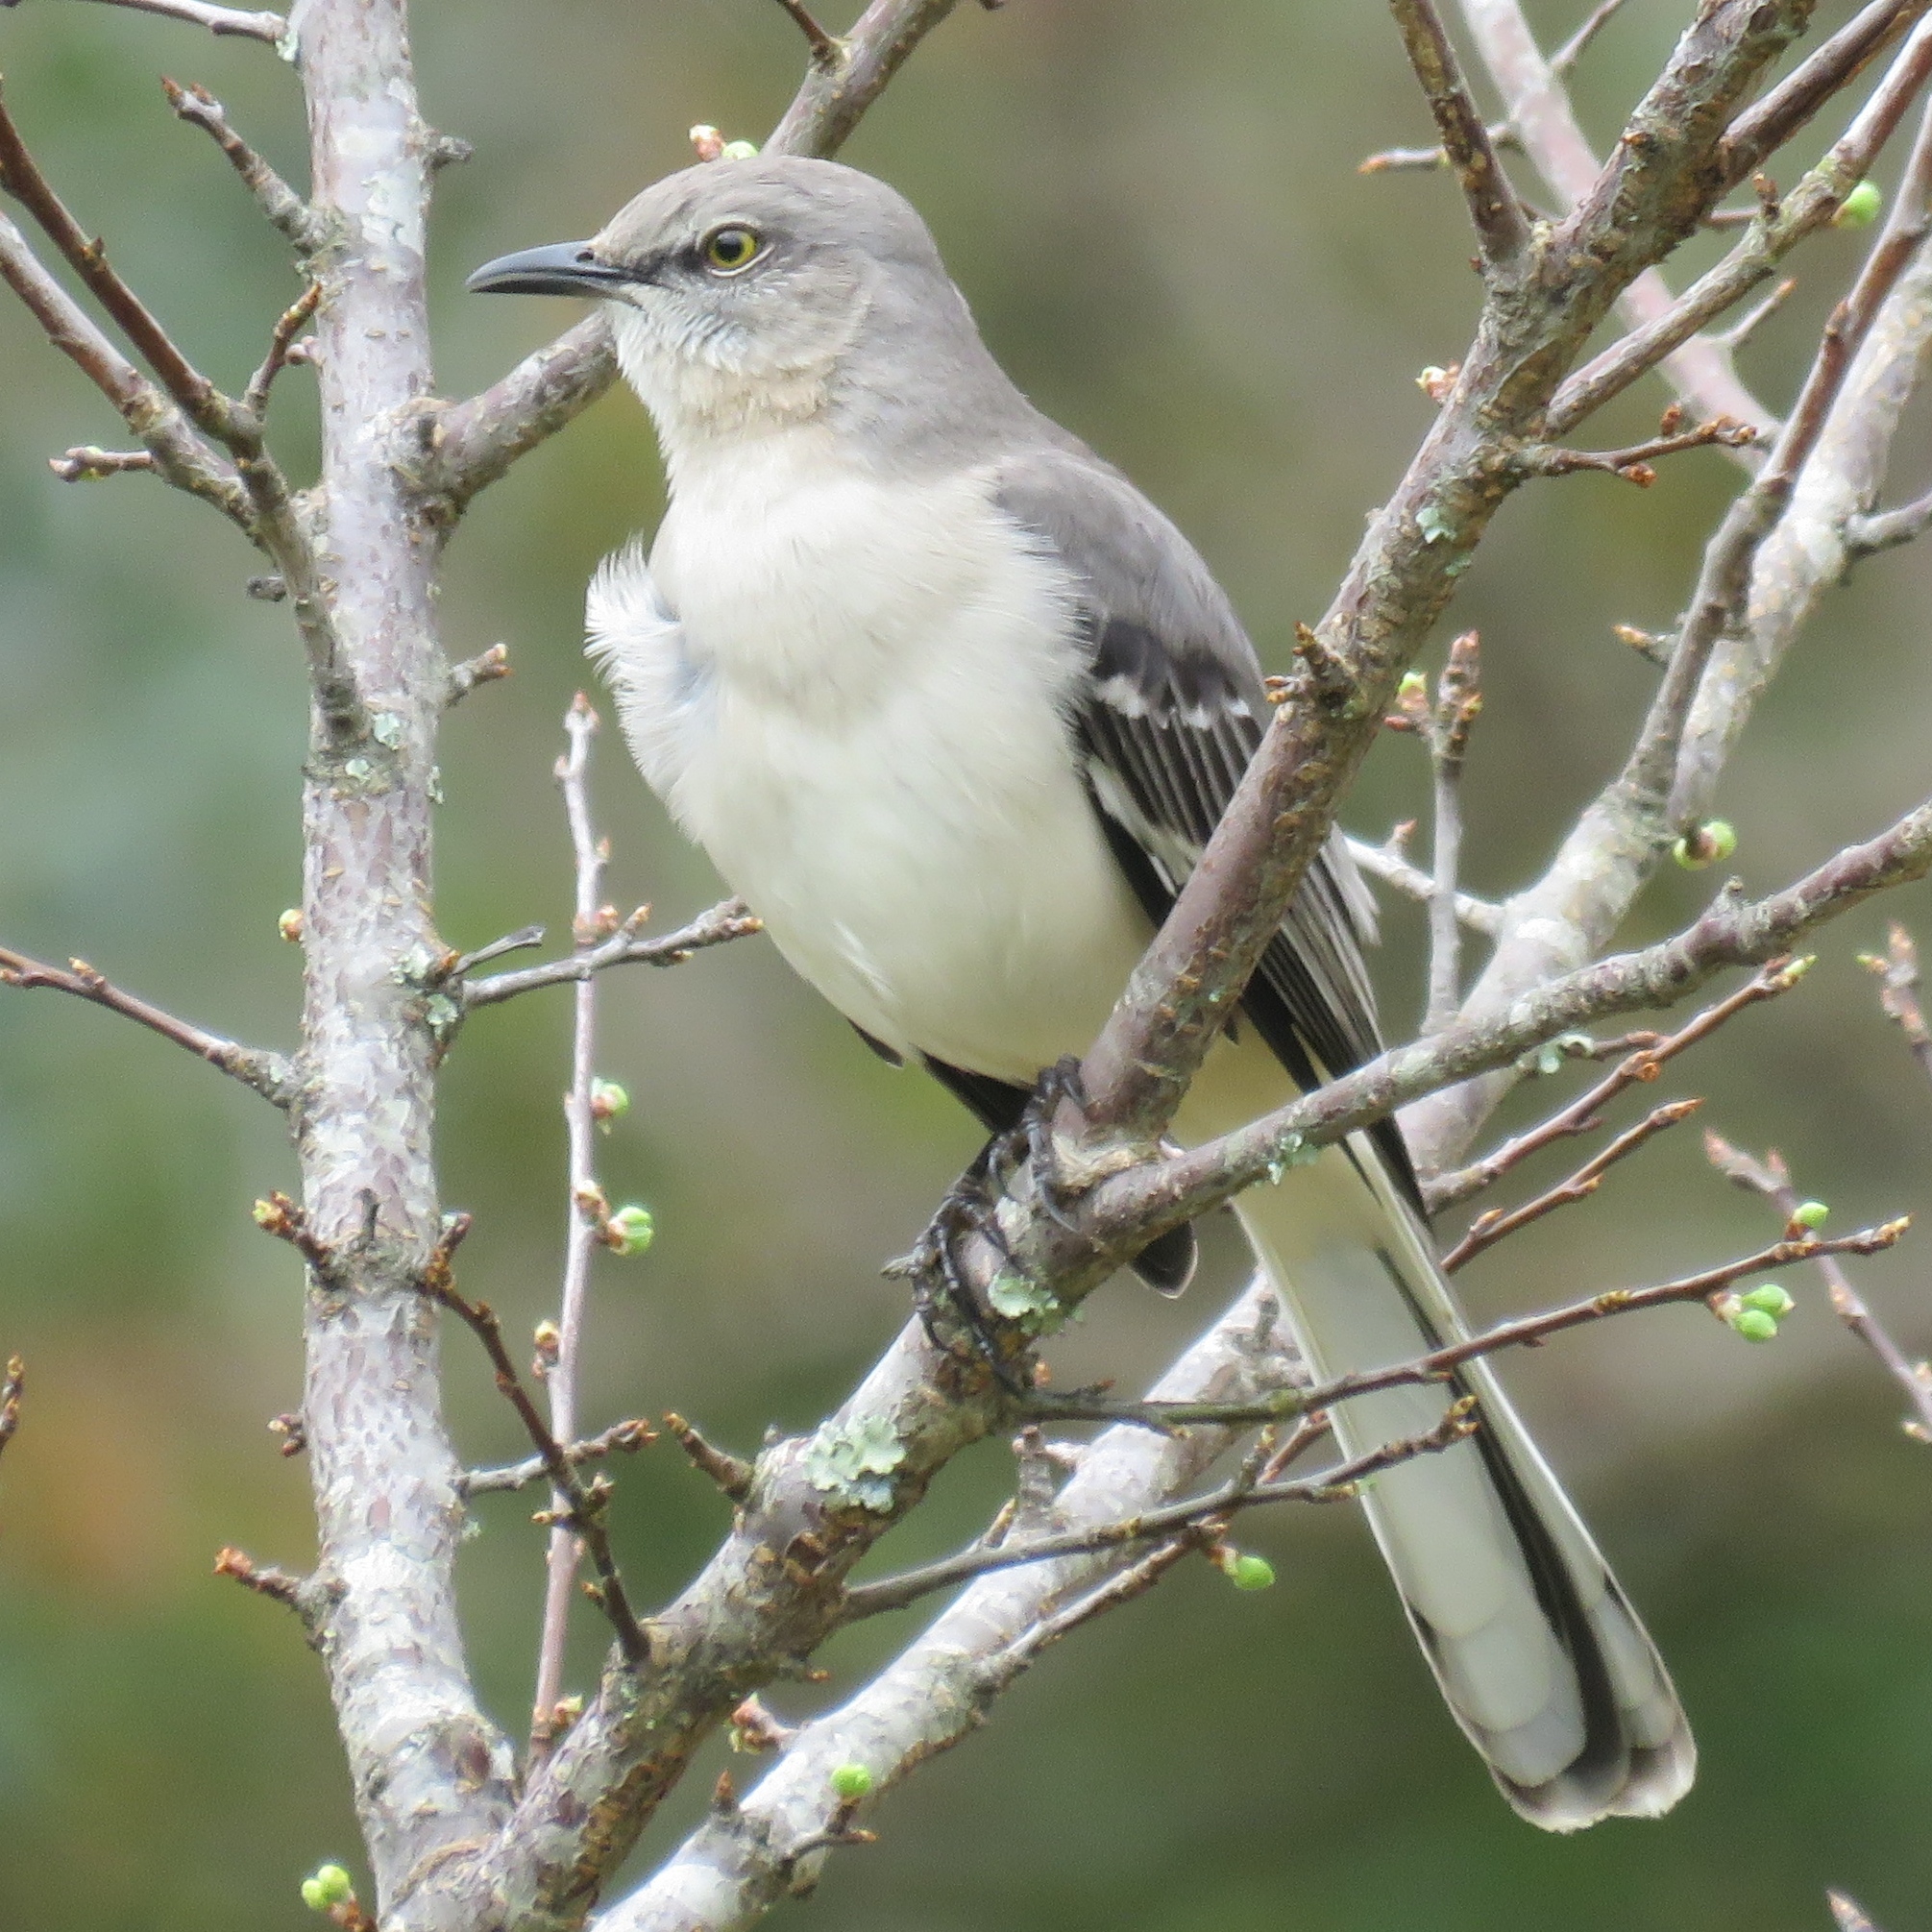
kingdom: Animalia
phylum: Chordata
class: Aves
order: Passeriformes
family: Mimidae
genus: Mimus
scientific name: Mimus polyglottos
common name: Northern mockingbird
